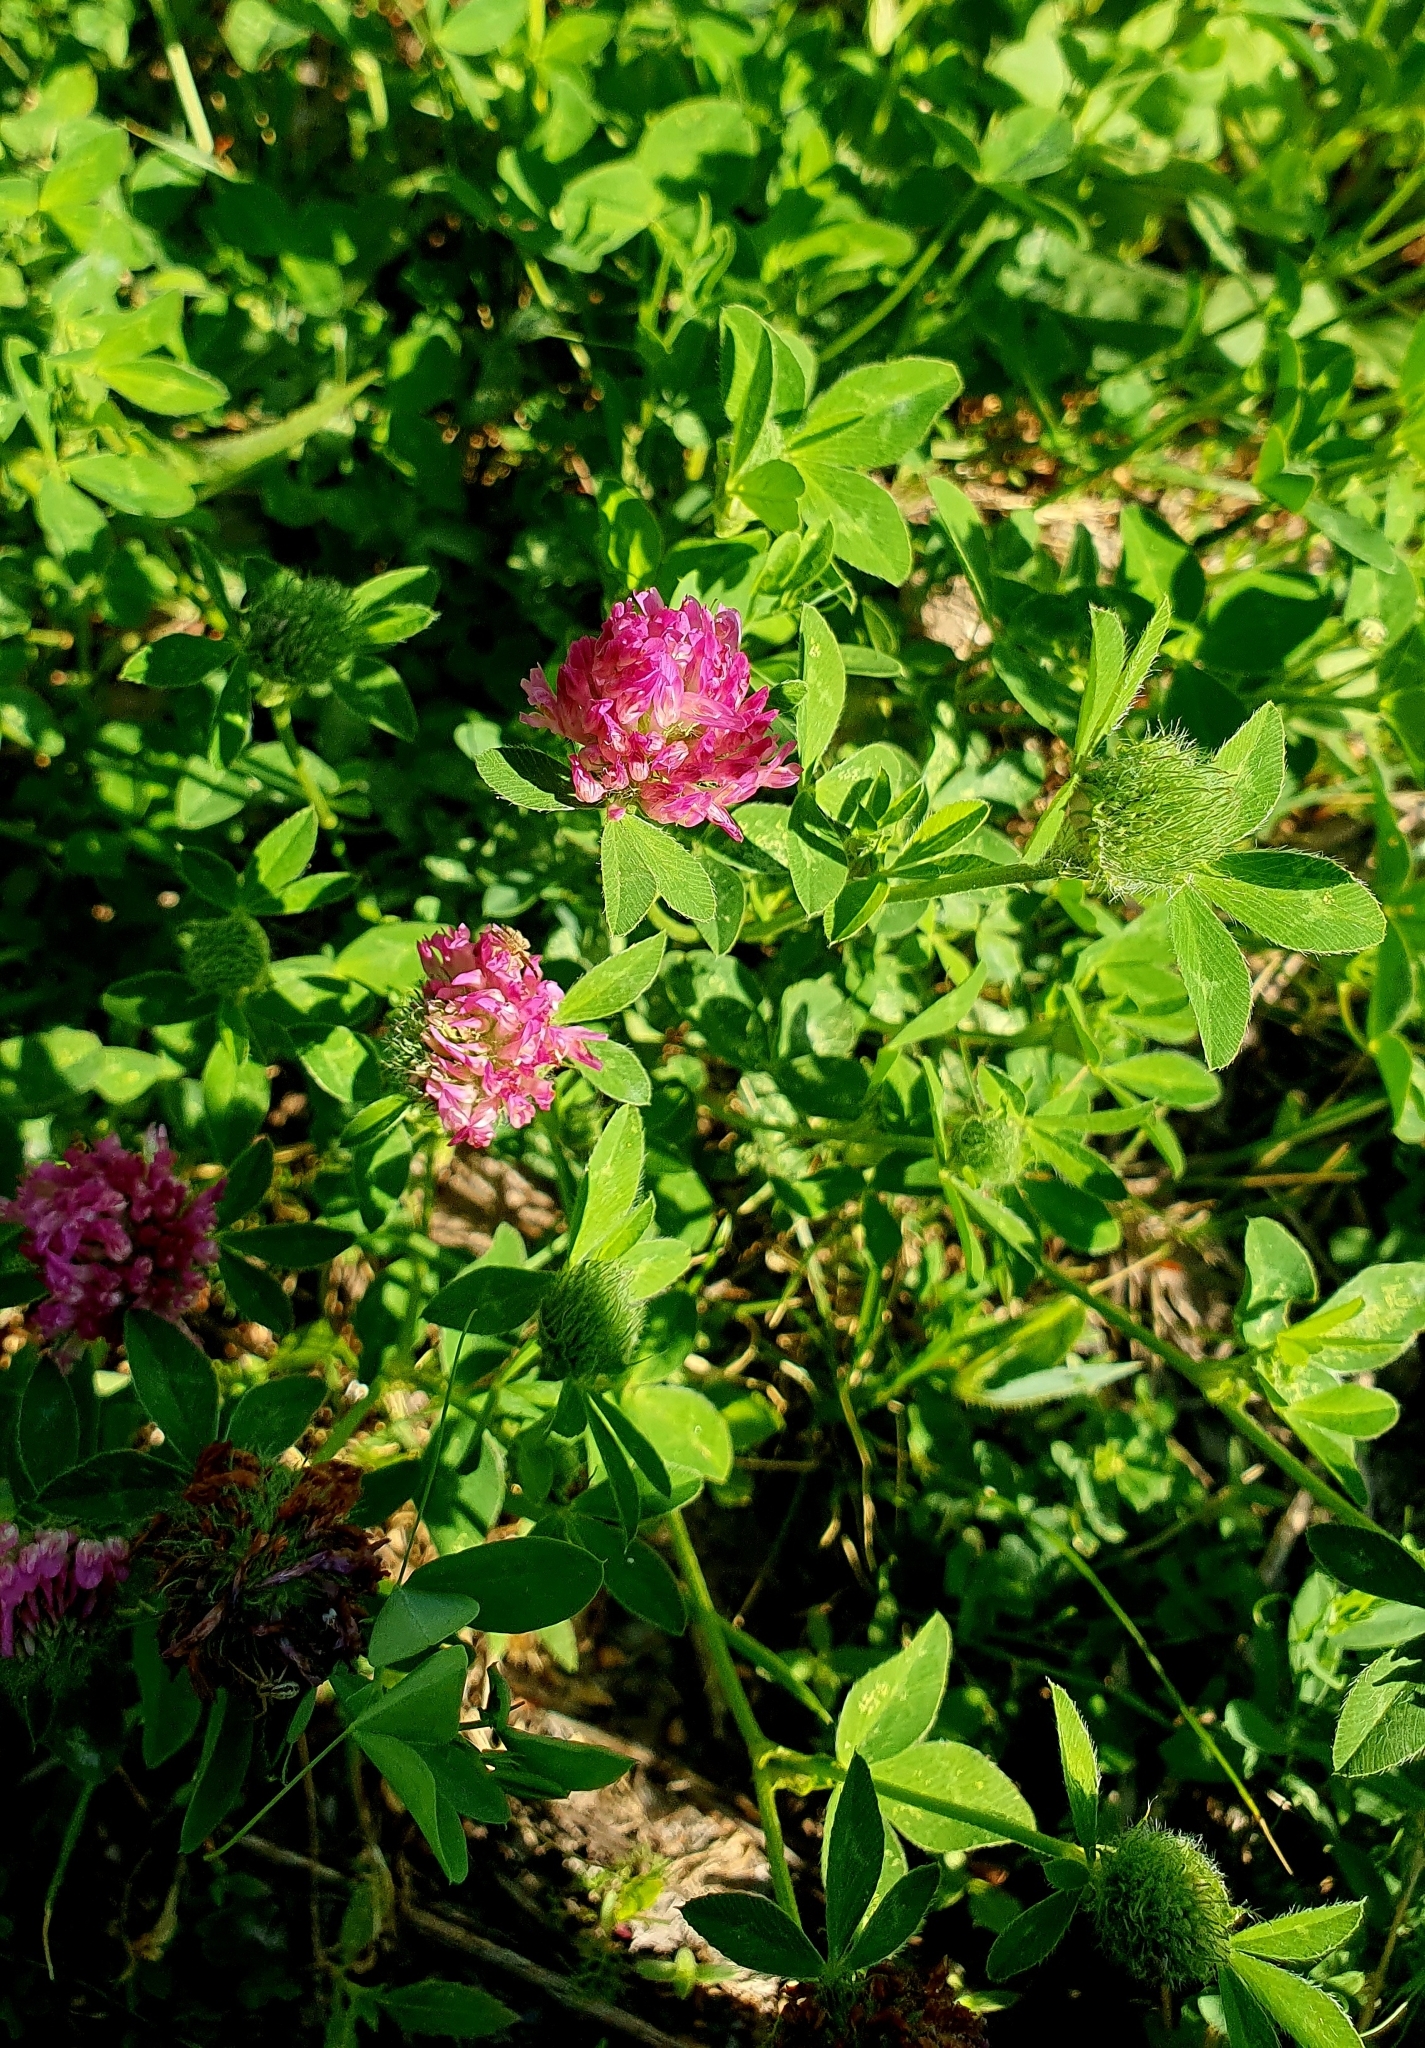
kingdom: Plantae
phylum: Tracheophyta
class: Magnoliopsida
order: Fabales
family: Fabaceae
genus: Trifolium
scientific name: Trifolium pratense
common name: Red clover
